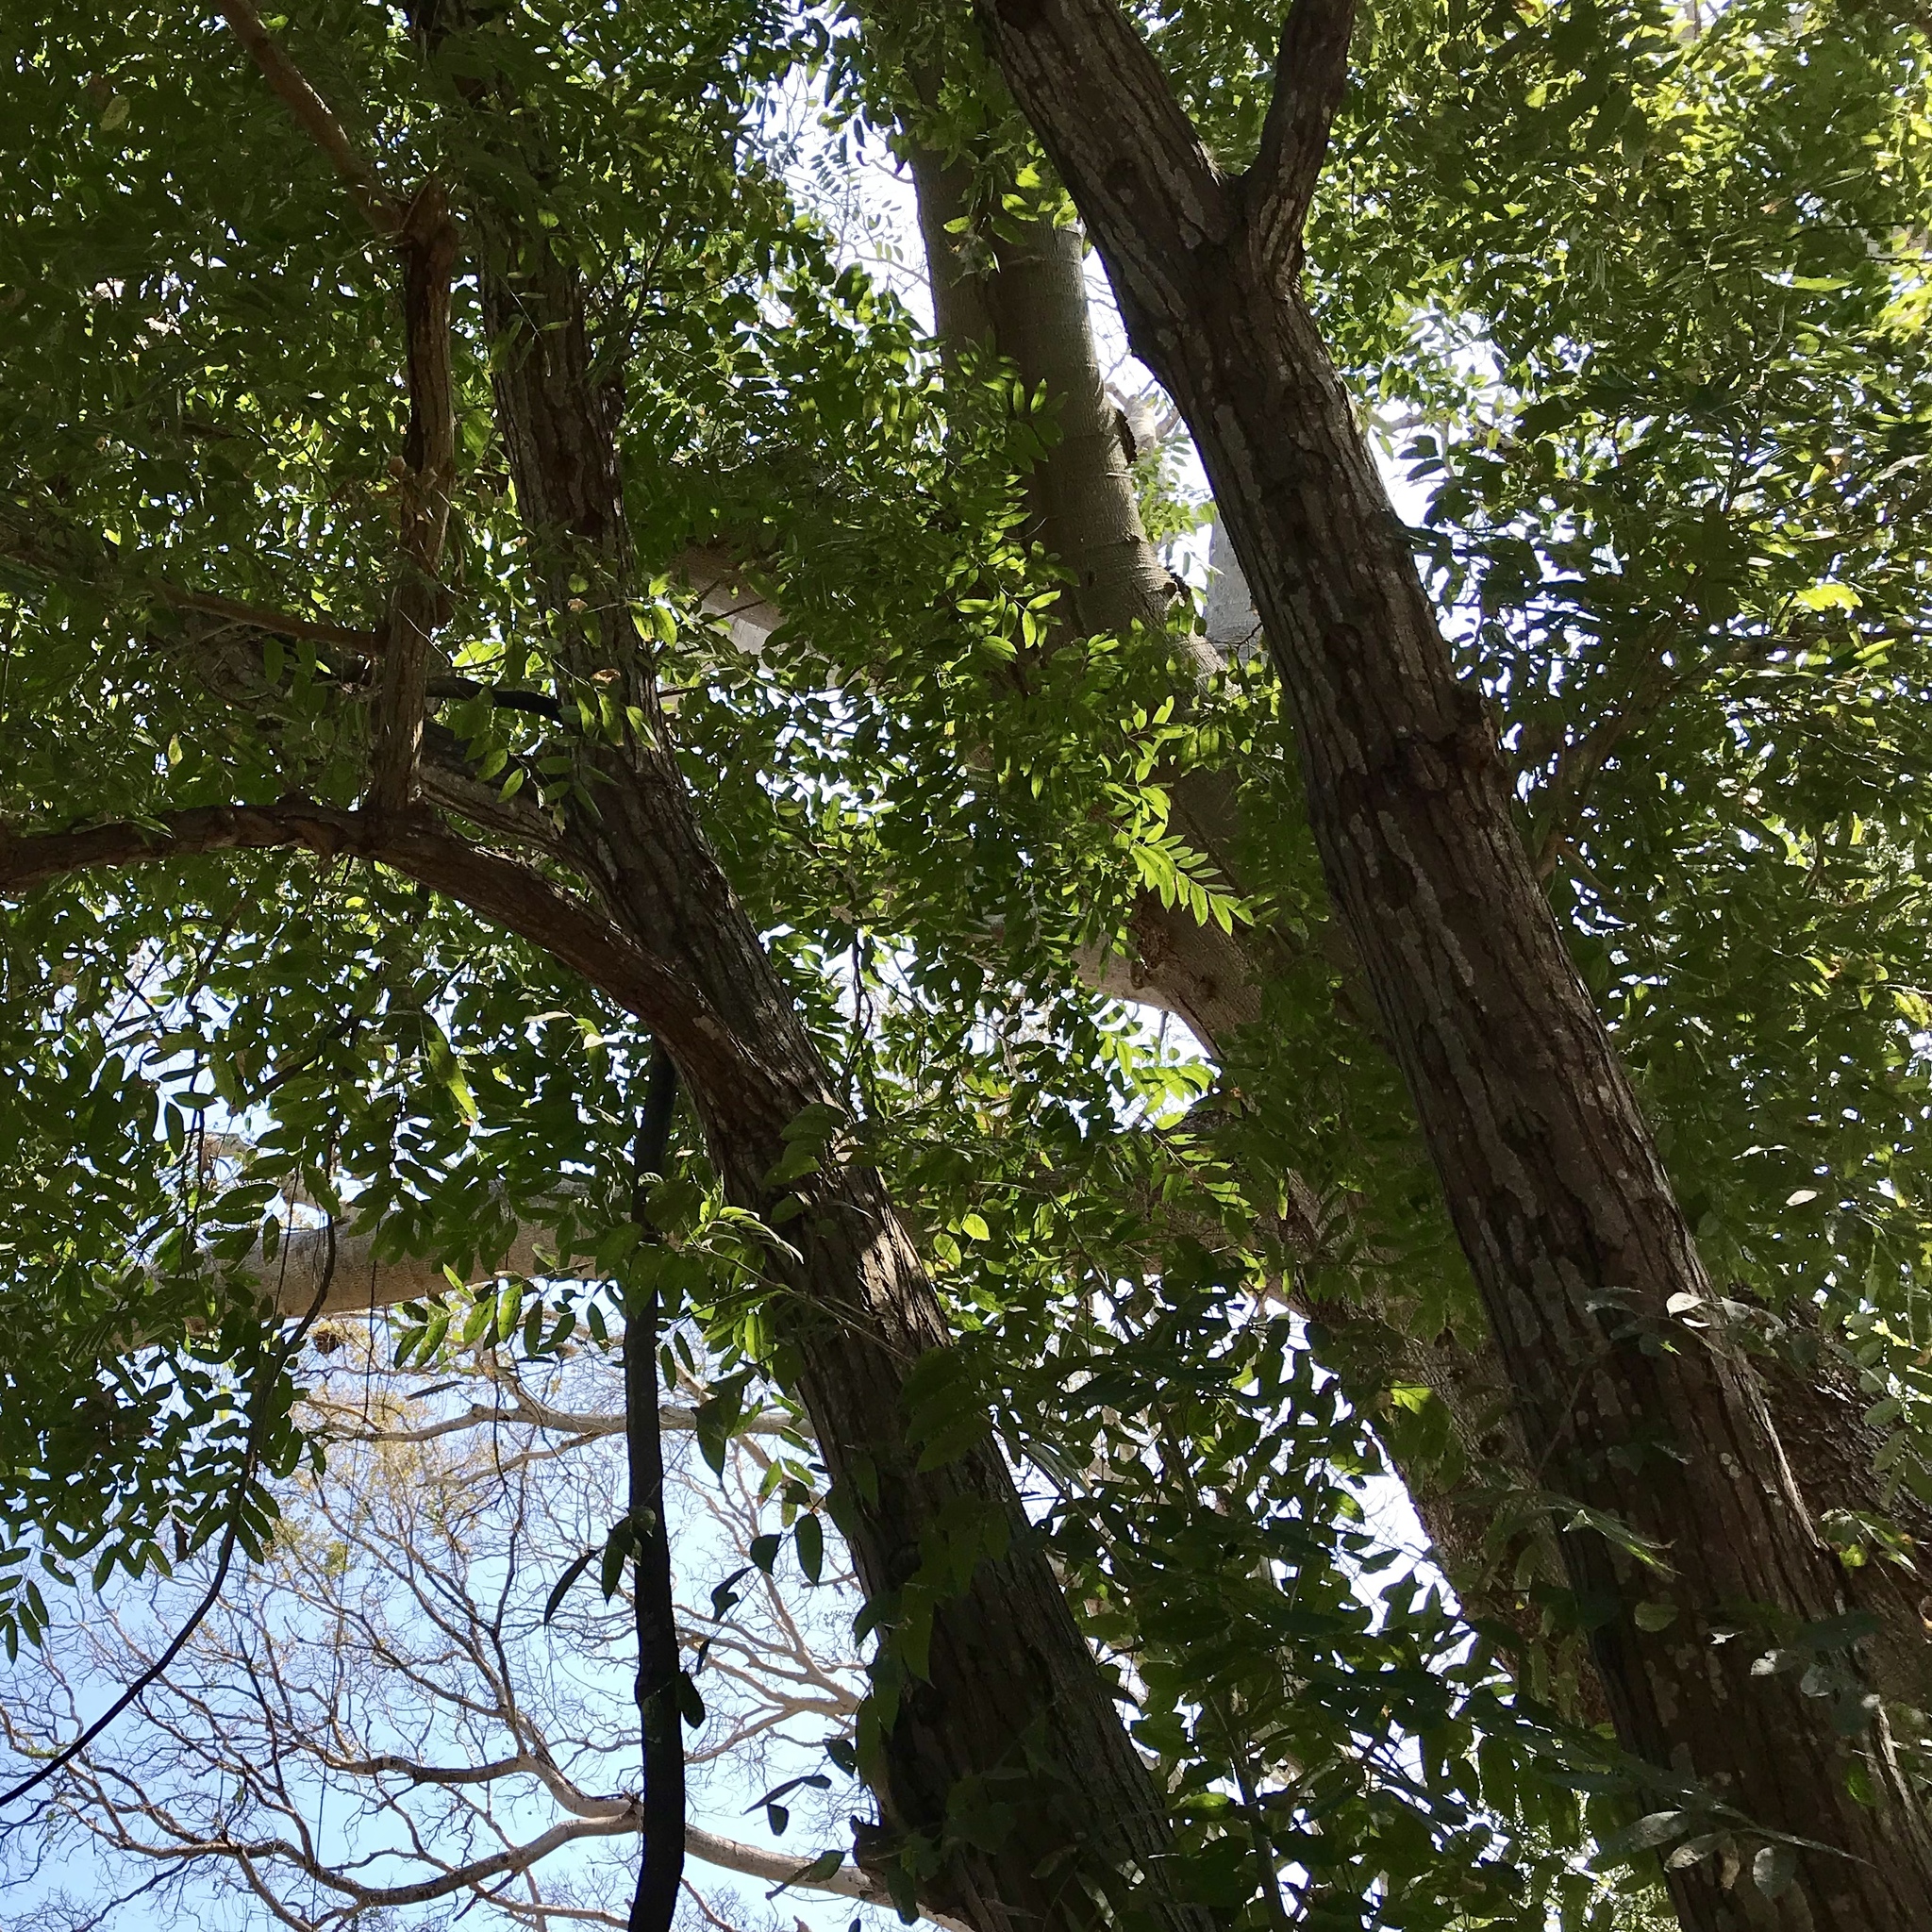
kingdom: Plantae
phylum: Tracheophyta
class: Magnoliopsida
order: Sapindales
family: Meliaceae
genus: Cedrela
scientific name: Cedrela odorata
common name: Red cedar
